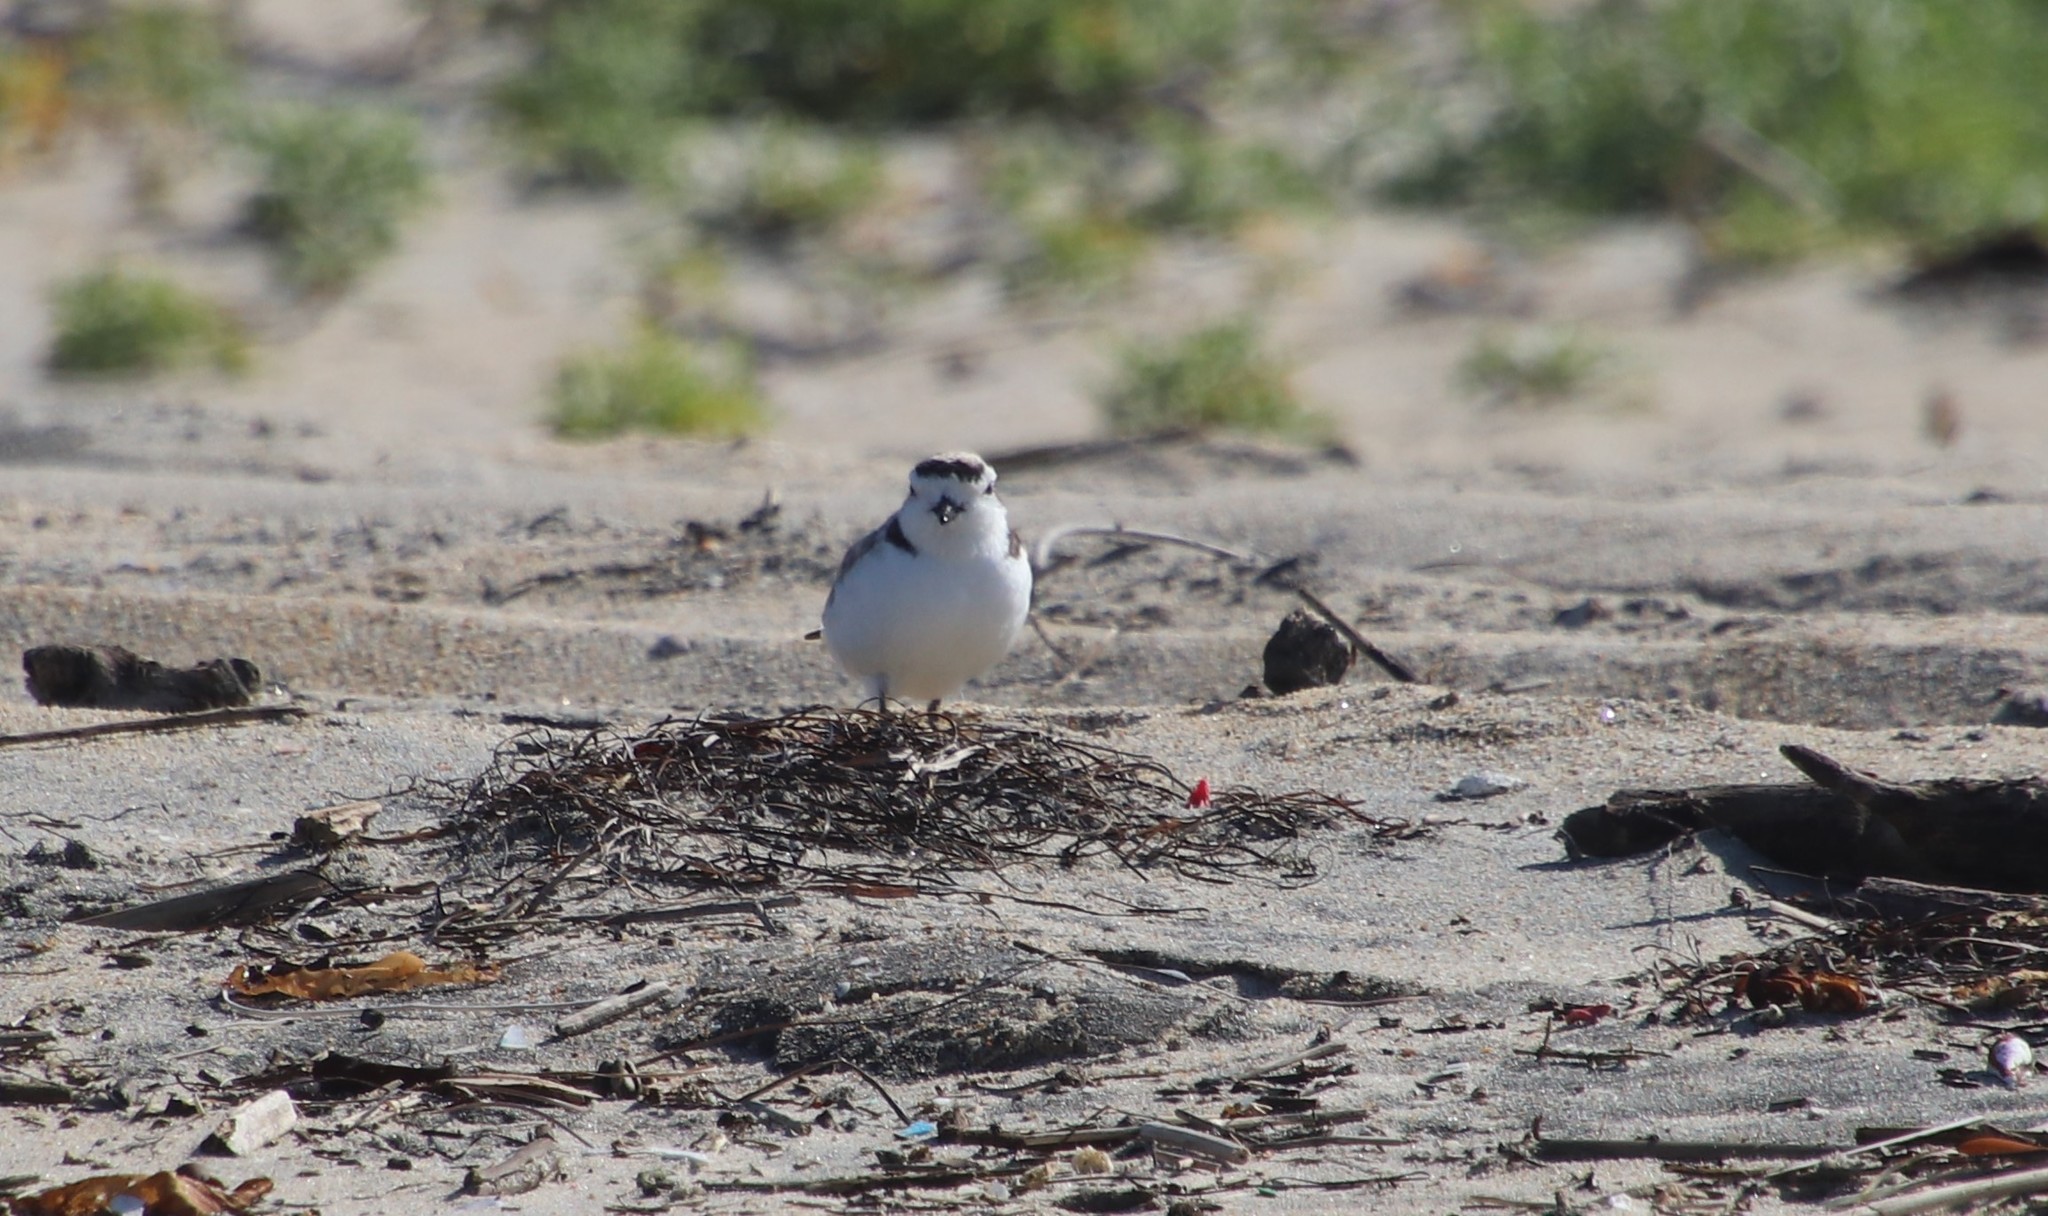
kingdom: Animalia
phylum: Chordata
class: Aves
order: Charadriiformes
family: Charadriidae
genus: Anarhynchus
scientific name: Anarhynchus
